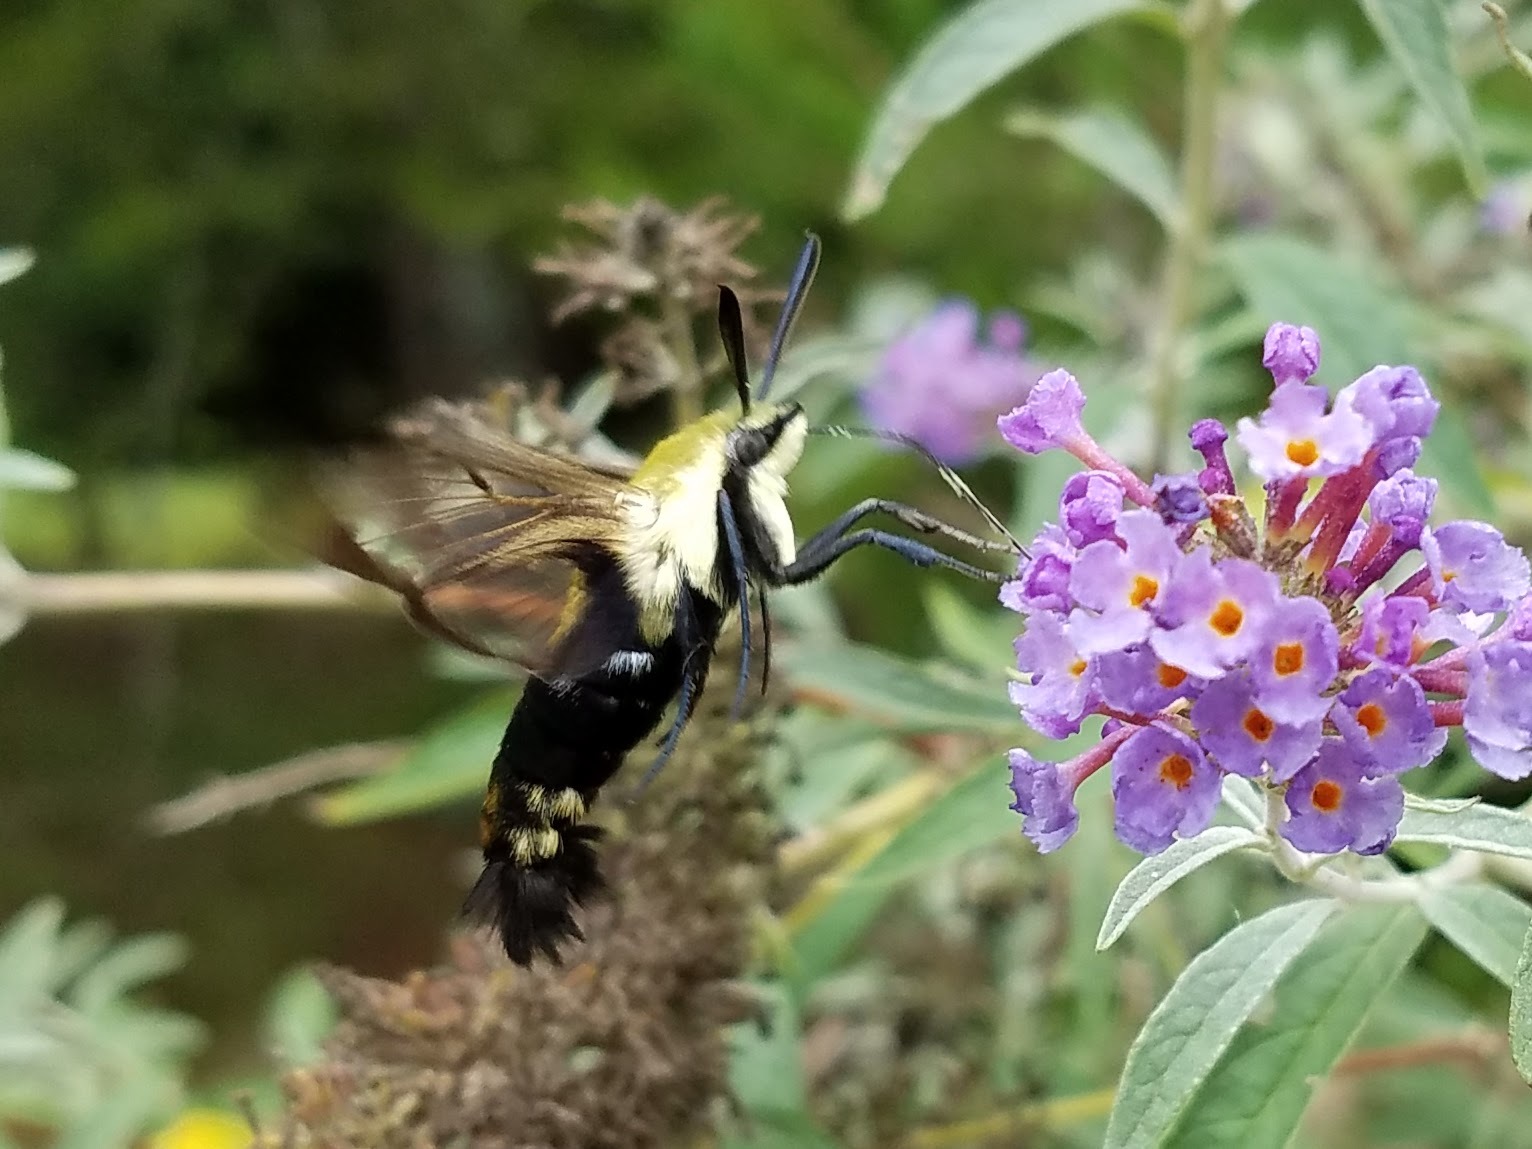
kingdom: Animalia
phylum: Arthropoda
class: Insecta
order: Lepidoptera
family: Sphingidae
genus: Hemaris
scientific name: Hemaris diffinis
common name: Bumblebee moth
